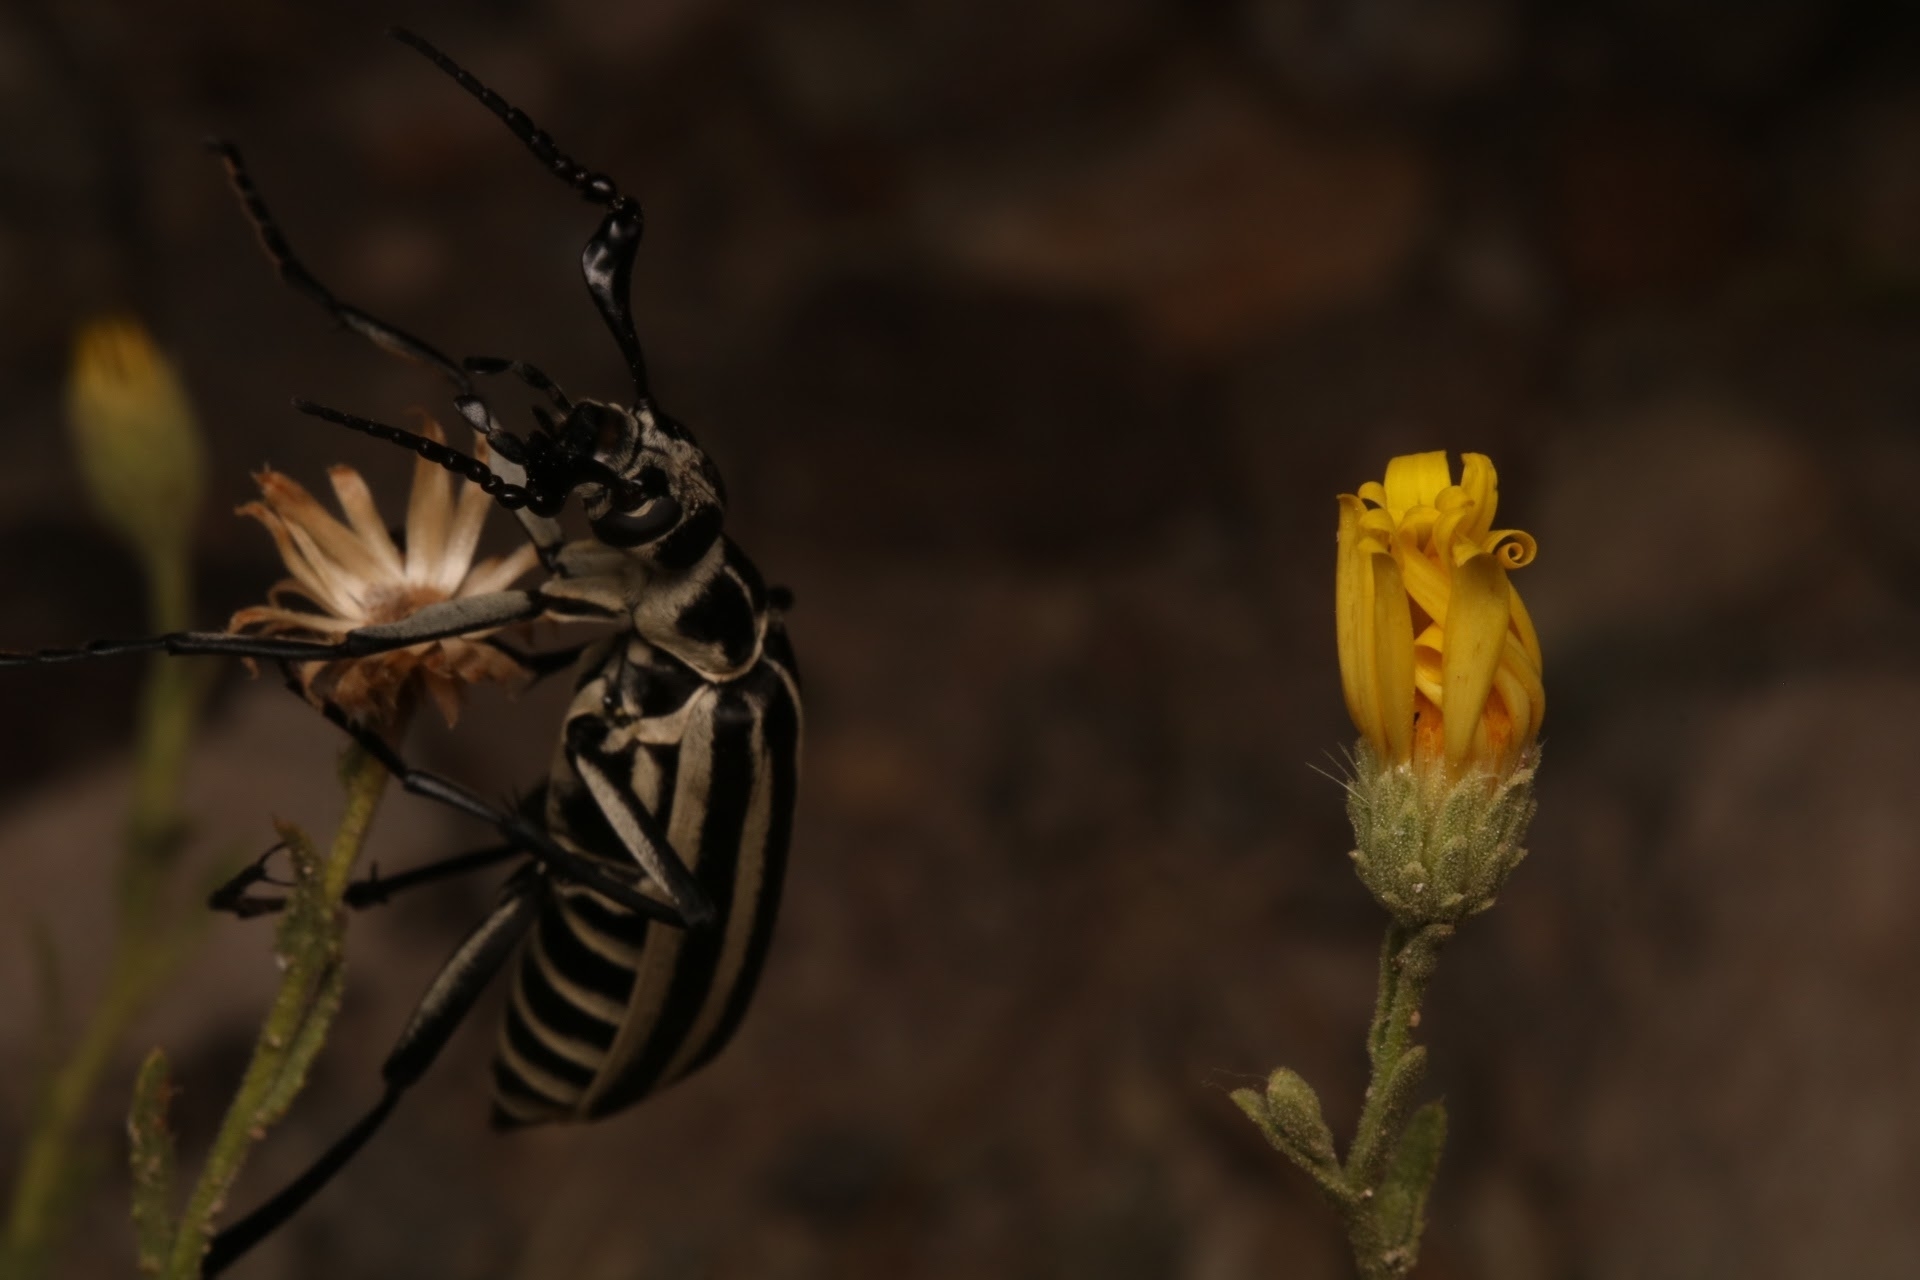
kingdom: Animalia
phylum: Arthropoda
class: Insecta
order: Coleoptera
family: Meloidae
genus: Epicauta
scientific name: Epicauta atrivittata
